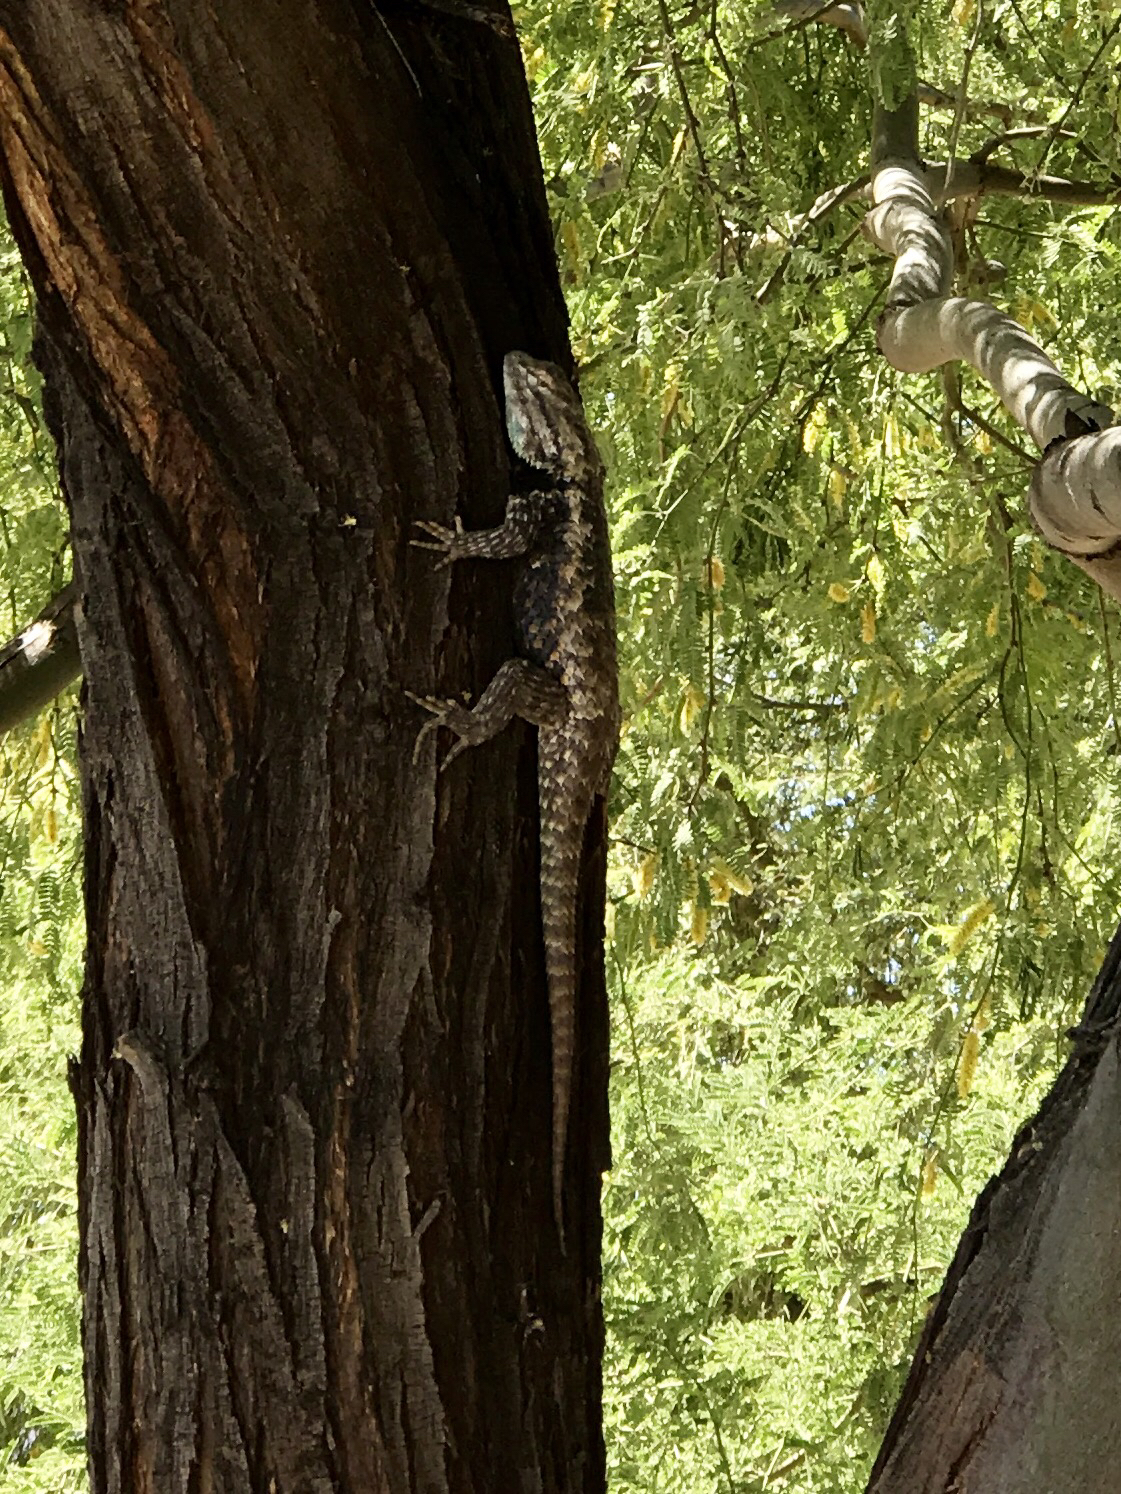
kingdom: Animalia
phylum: Chordata
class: Squamata
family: Phrynosomatidae
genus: Sceloporus
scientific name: Sceloporus magister
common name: Desert spiny lizard
